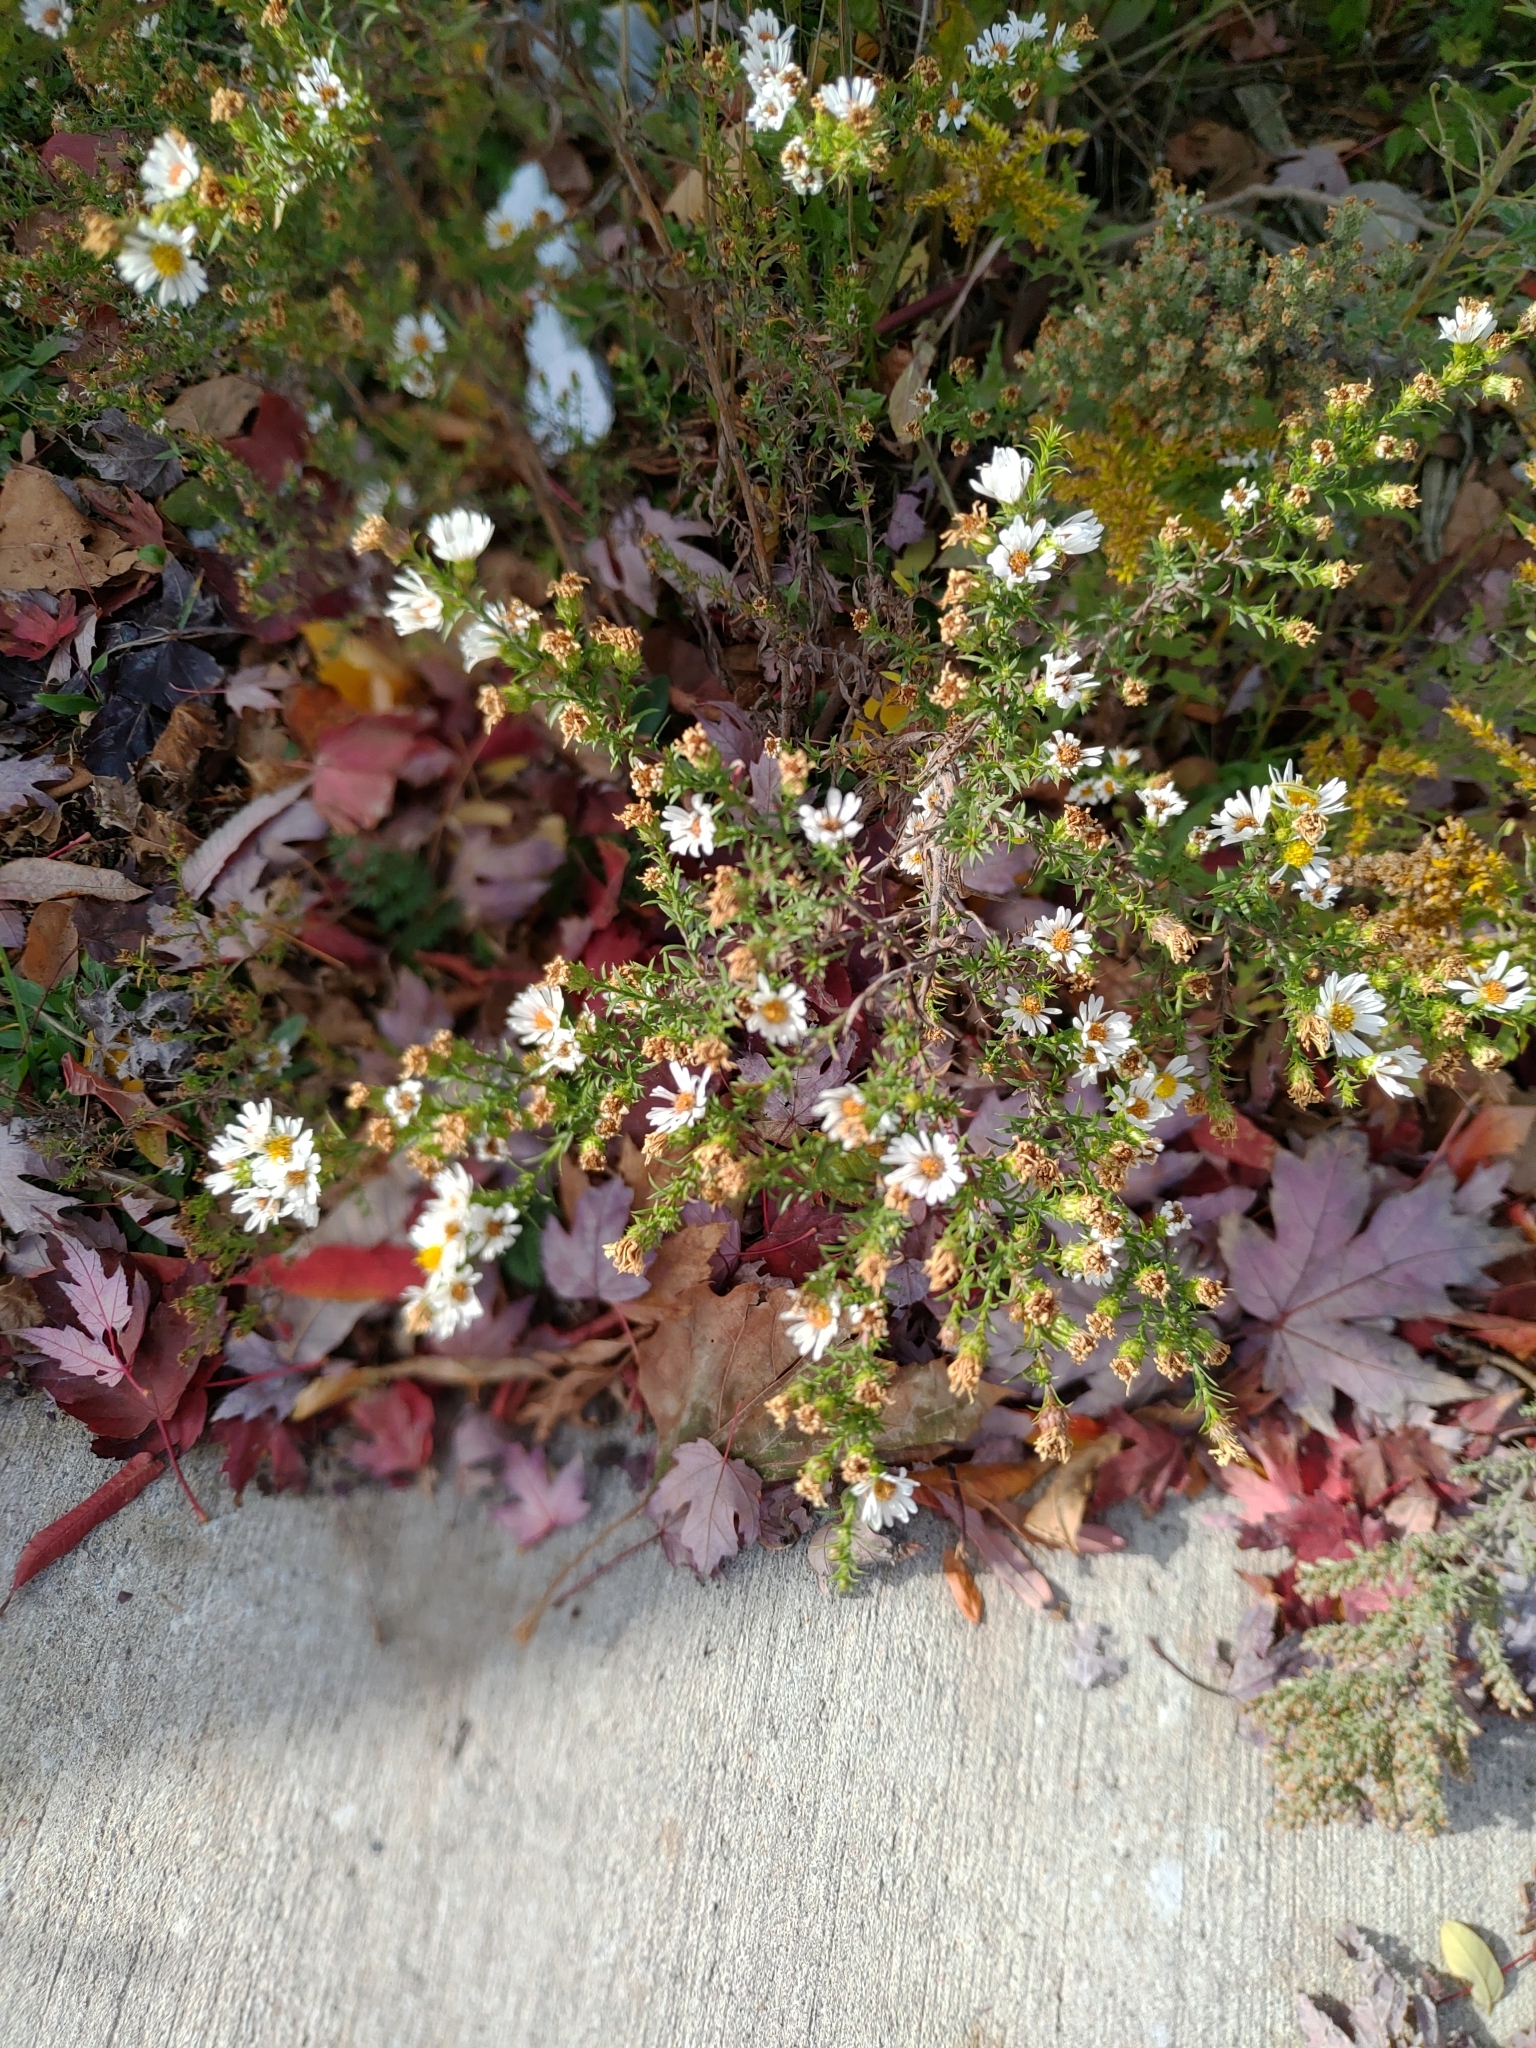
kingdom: Plantae
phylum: Tracheophyta
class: Magnoliopsida
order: Asterales
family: Asteraceae
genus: Symphyotrichum
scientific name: Symphyotrichum pilosum
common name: Awl aster
